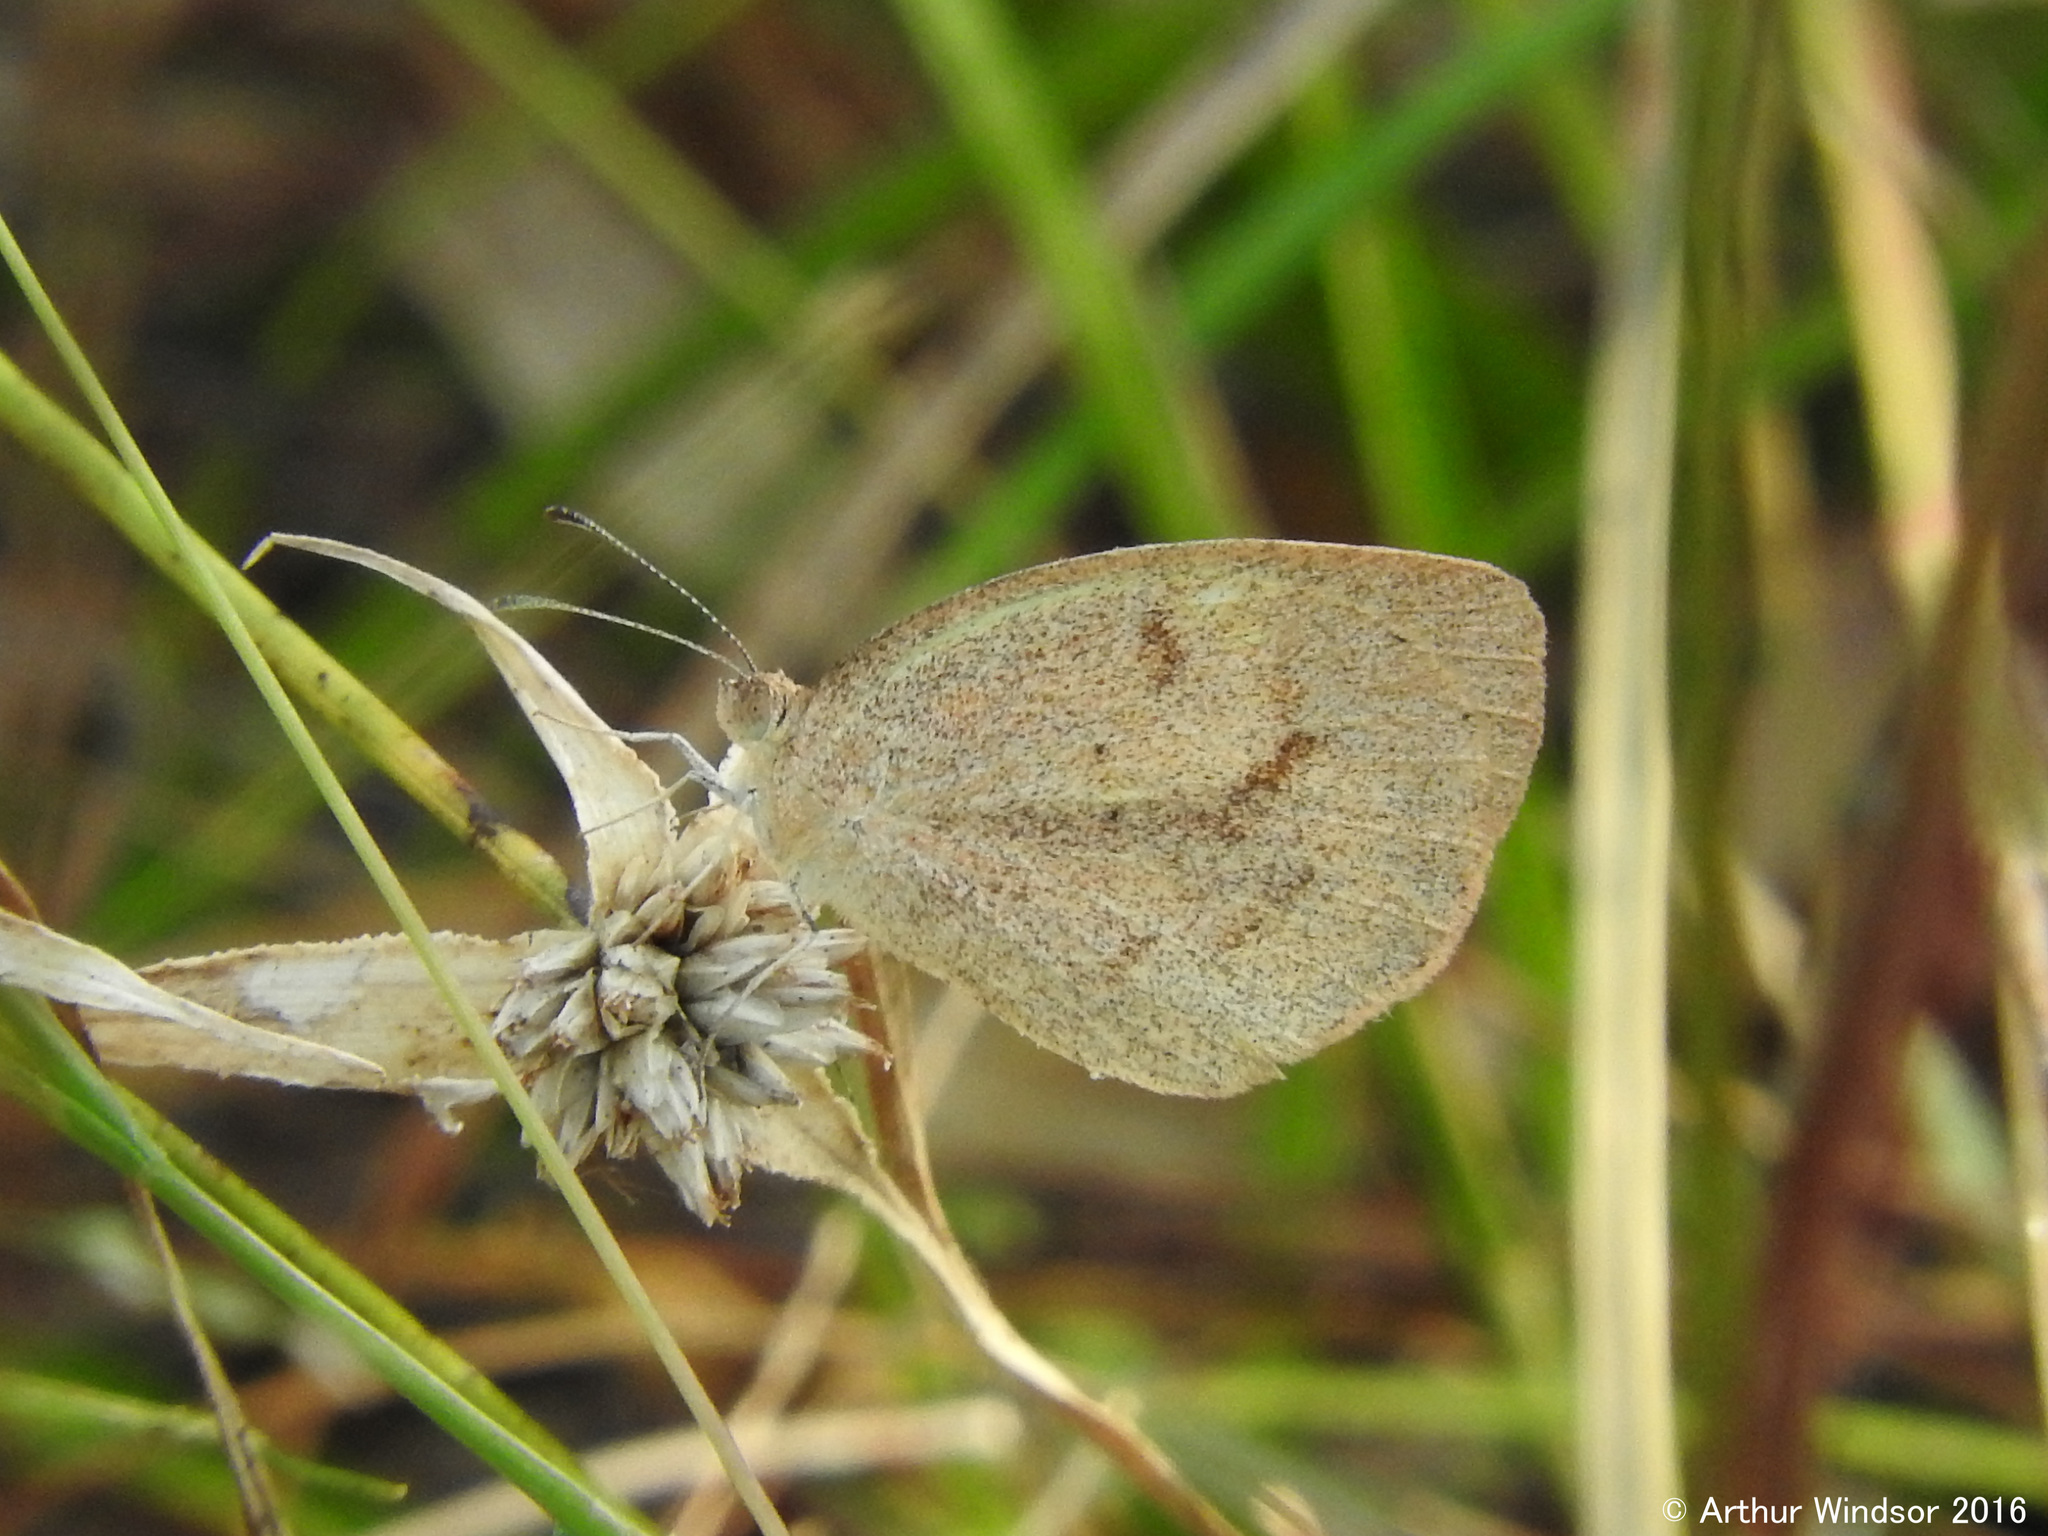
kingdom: Animalia
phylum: Arthropoda
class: Insecta
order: Lepidoptera
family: Pieridae
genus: Eurema
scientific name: Eurema daira
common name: Barred sulphur
